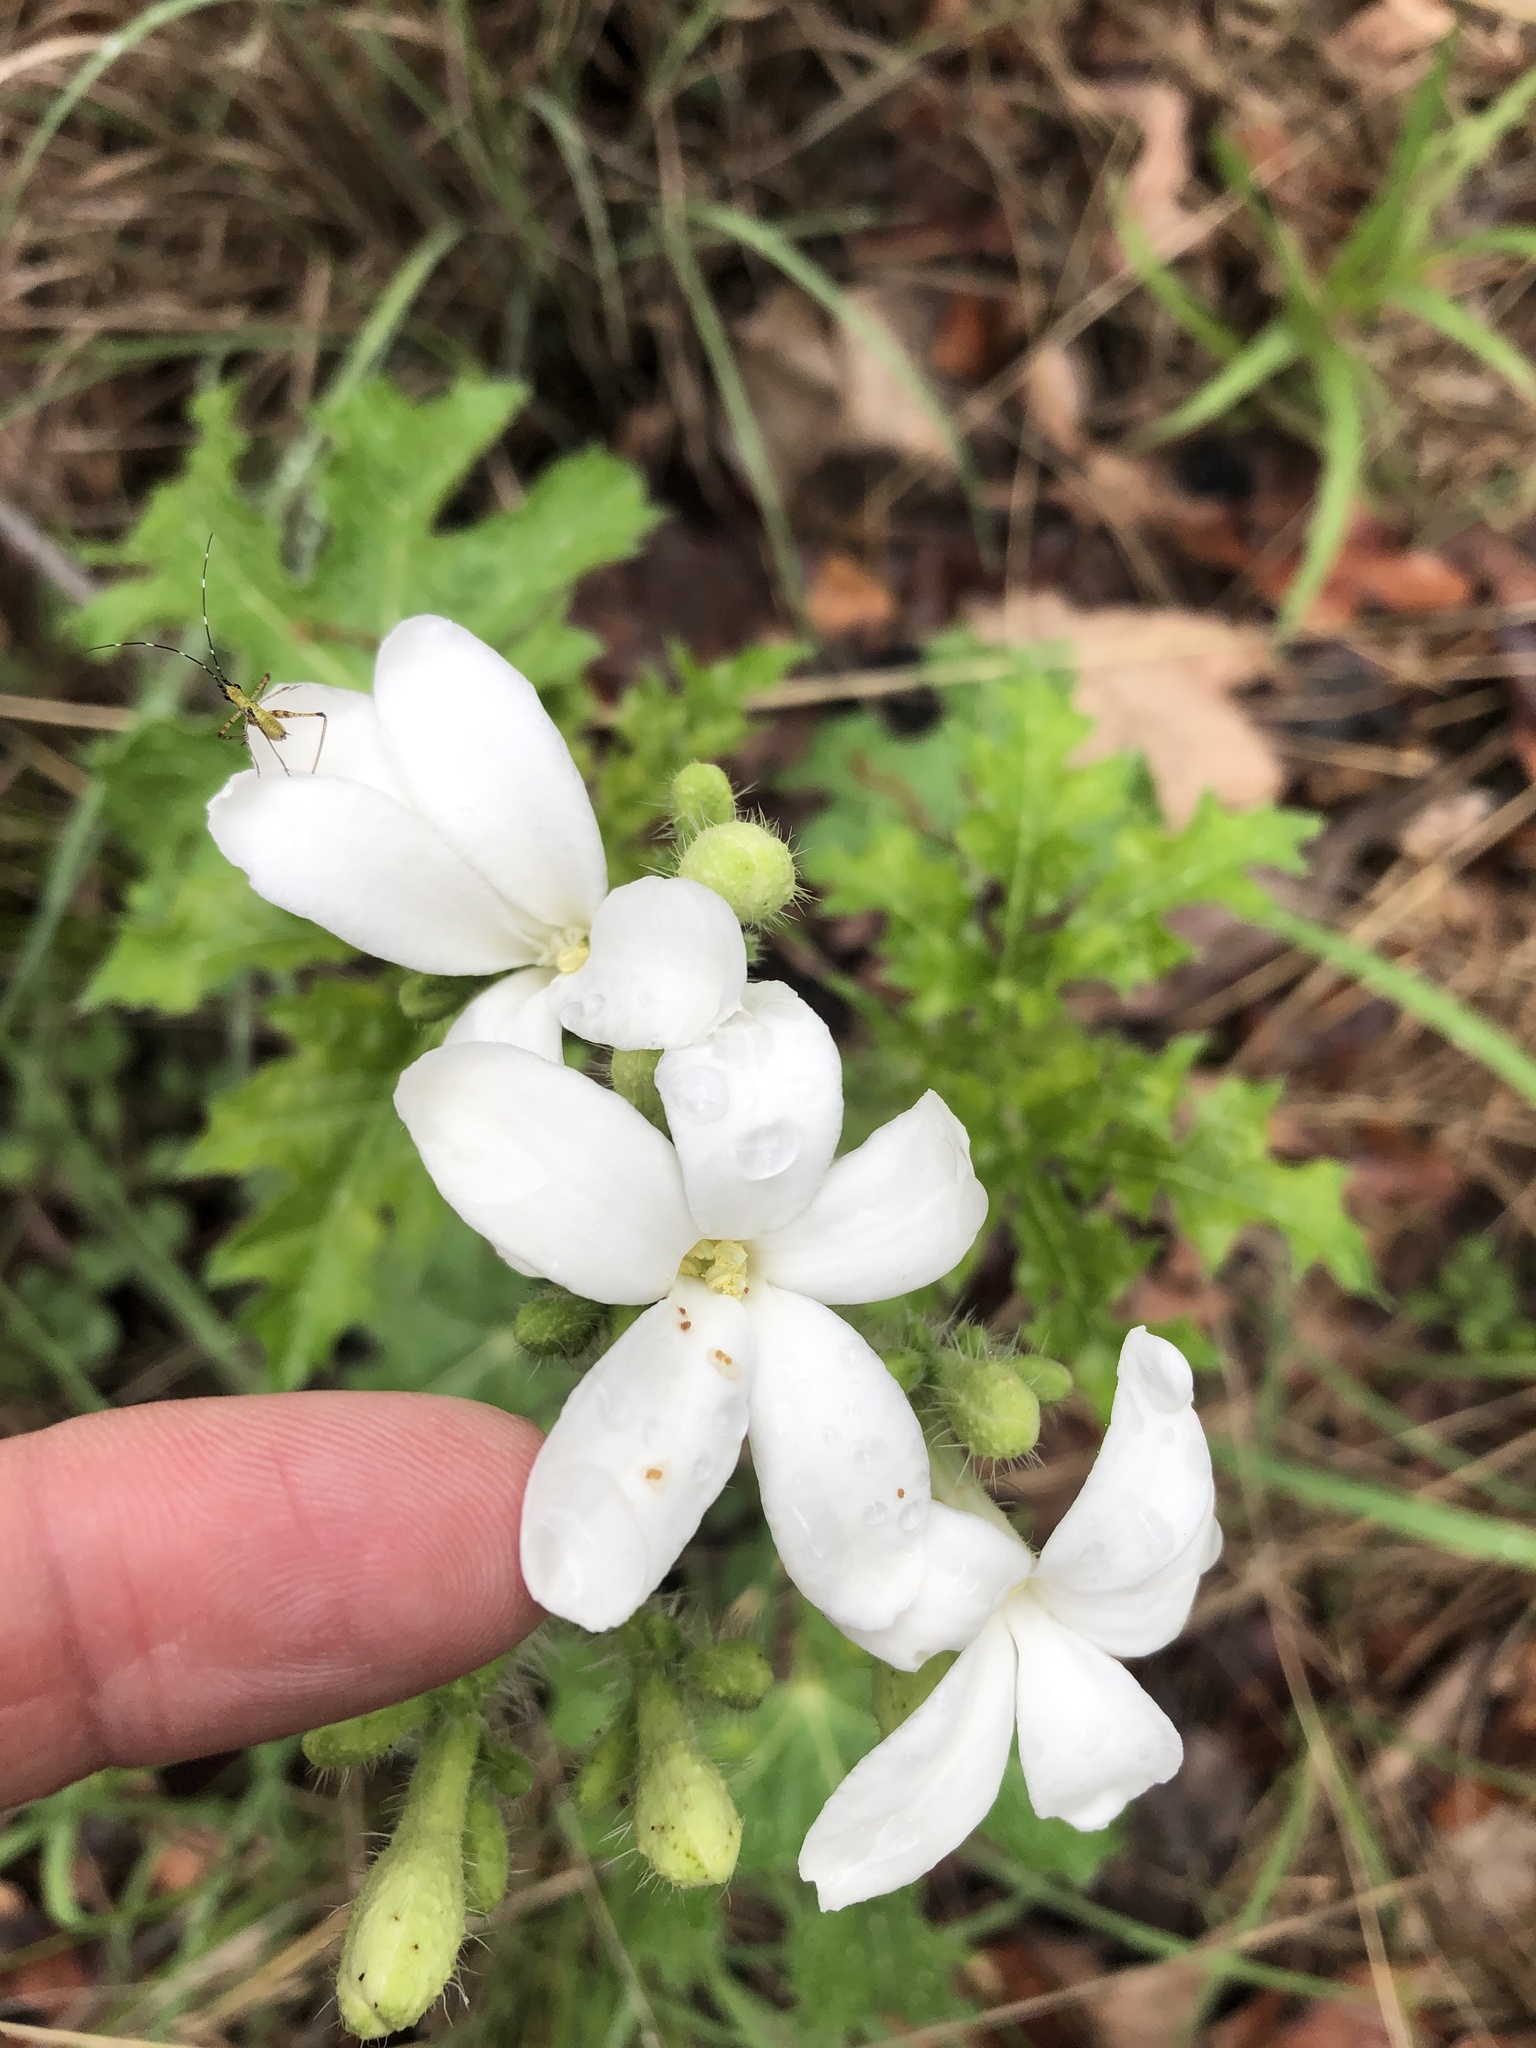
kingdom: Plantae
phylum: Tracheophyta
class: Magnoliopsida
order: Malpighiales
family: Euphorbiaceae
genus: Cnidoscolus
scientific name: Cnidoscolus texanus
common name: Texas bull-nettle
